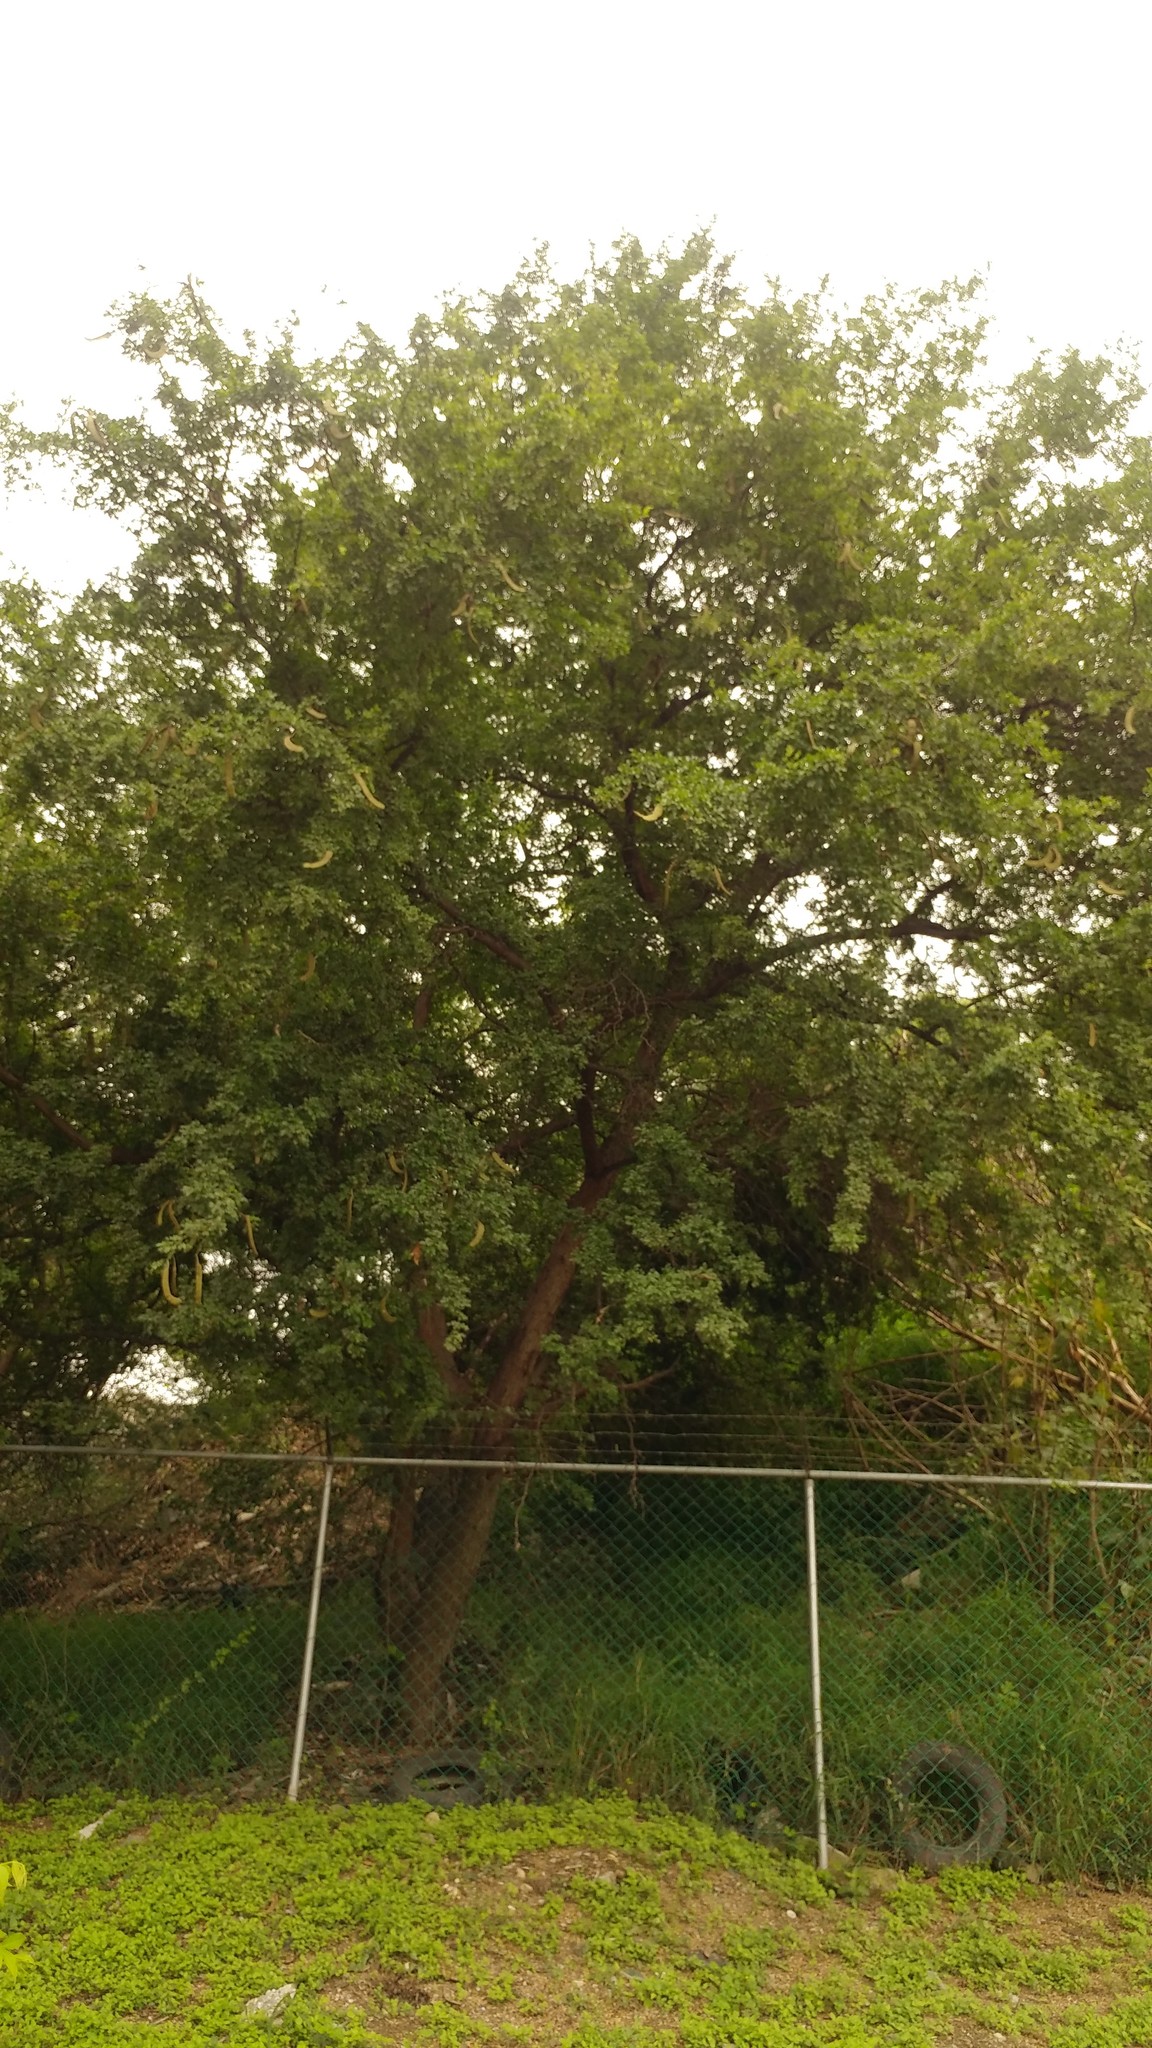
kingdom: Plantae
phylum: Tracheophyta
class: Magnoliopsida
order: Fabales
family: Fabaceae
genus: Ebenopsis
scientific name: Ebenopsis ebano
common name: Ebony blackbead
